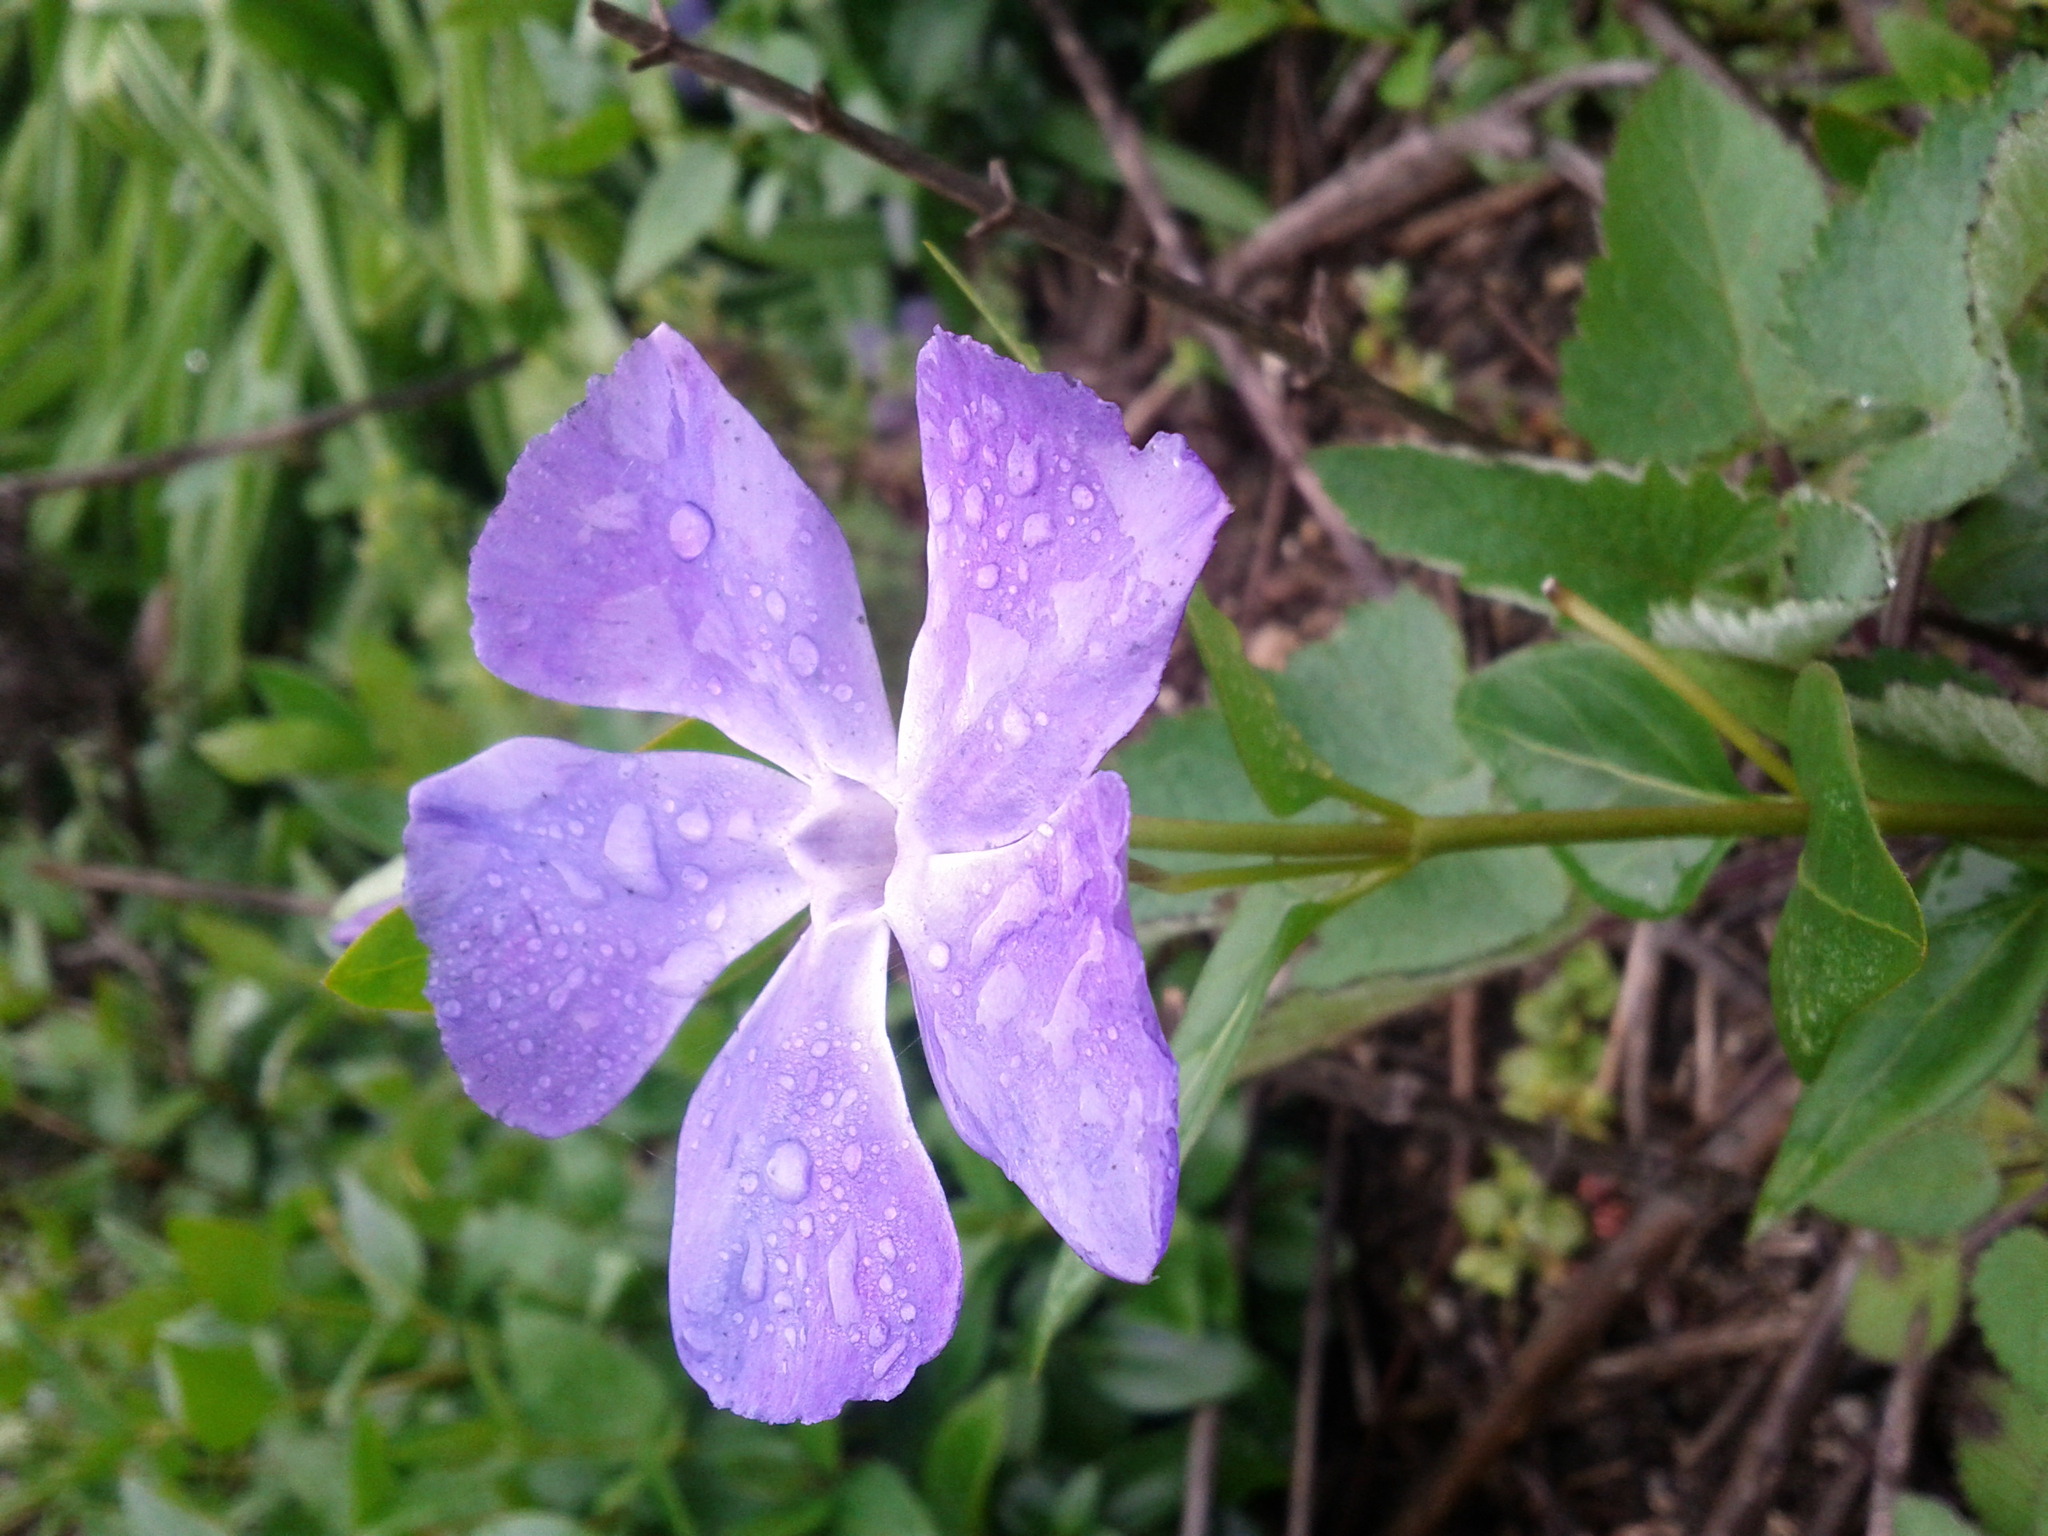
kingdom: Plantae
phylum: Tracheophyta
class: Magnoliopsida
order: Gentianales
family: Apocynaceae
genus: Vinca
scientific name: Vinca major
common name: Greater periwinkle
